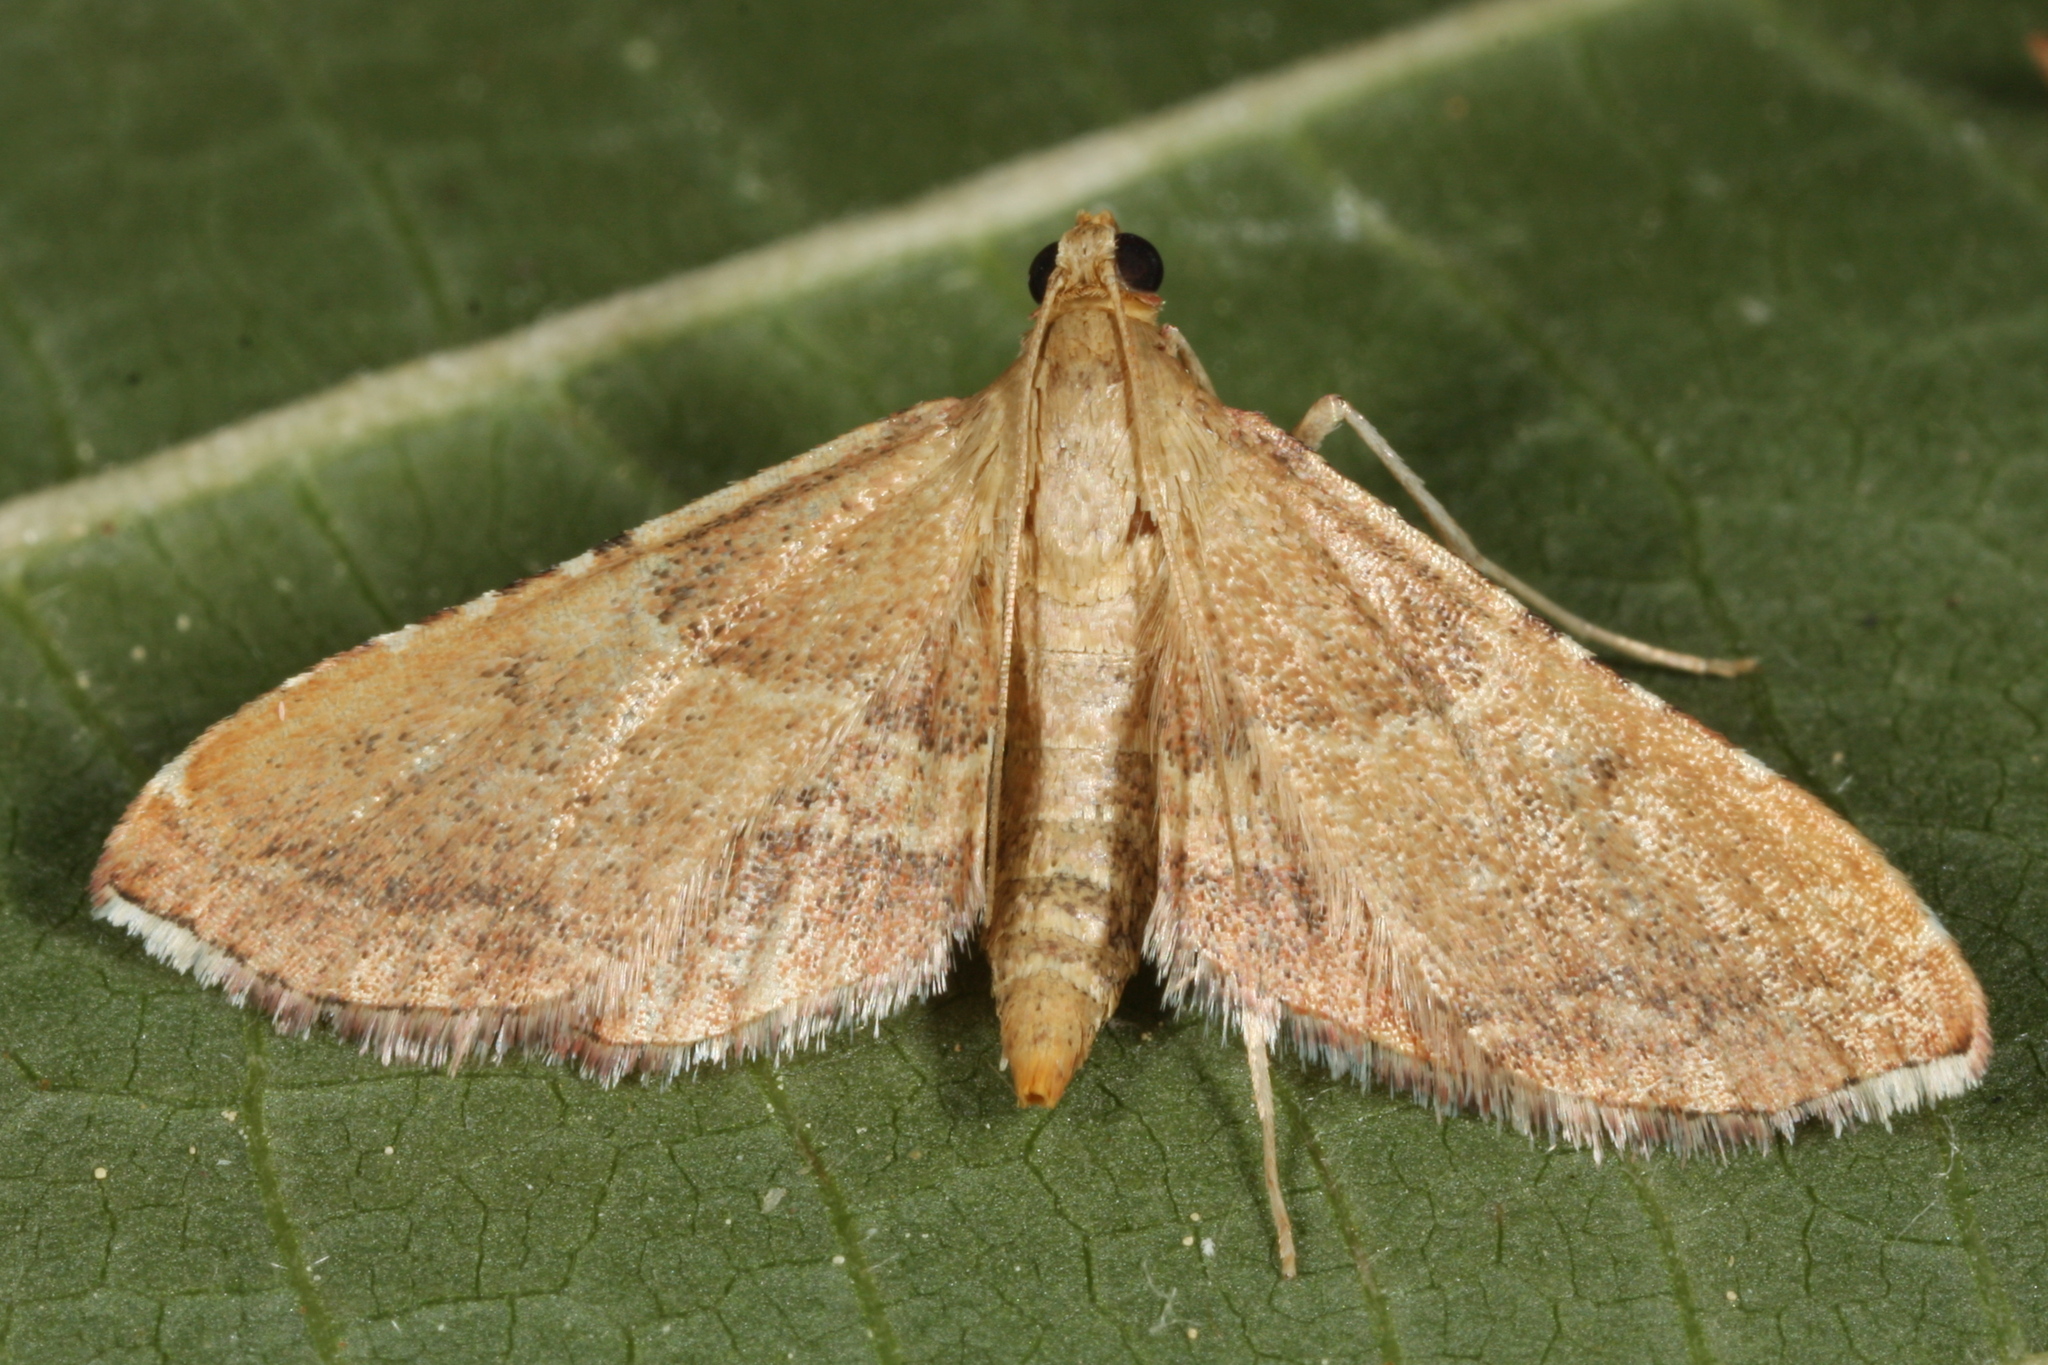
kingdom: Animalia
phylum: Arthropoda
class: Insecta
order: Lepidoptera
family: Pyralidae
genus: Endotricha
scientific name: Endotricha flammealis
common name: Rosy tabby
